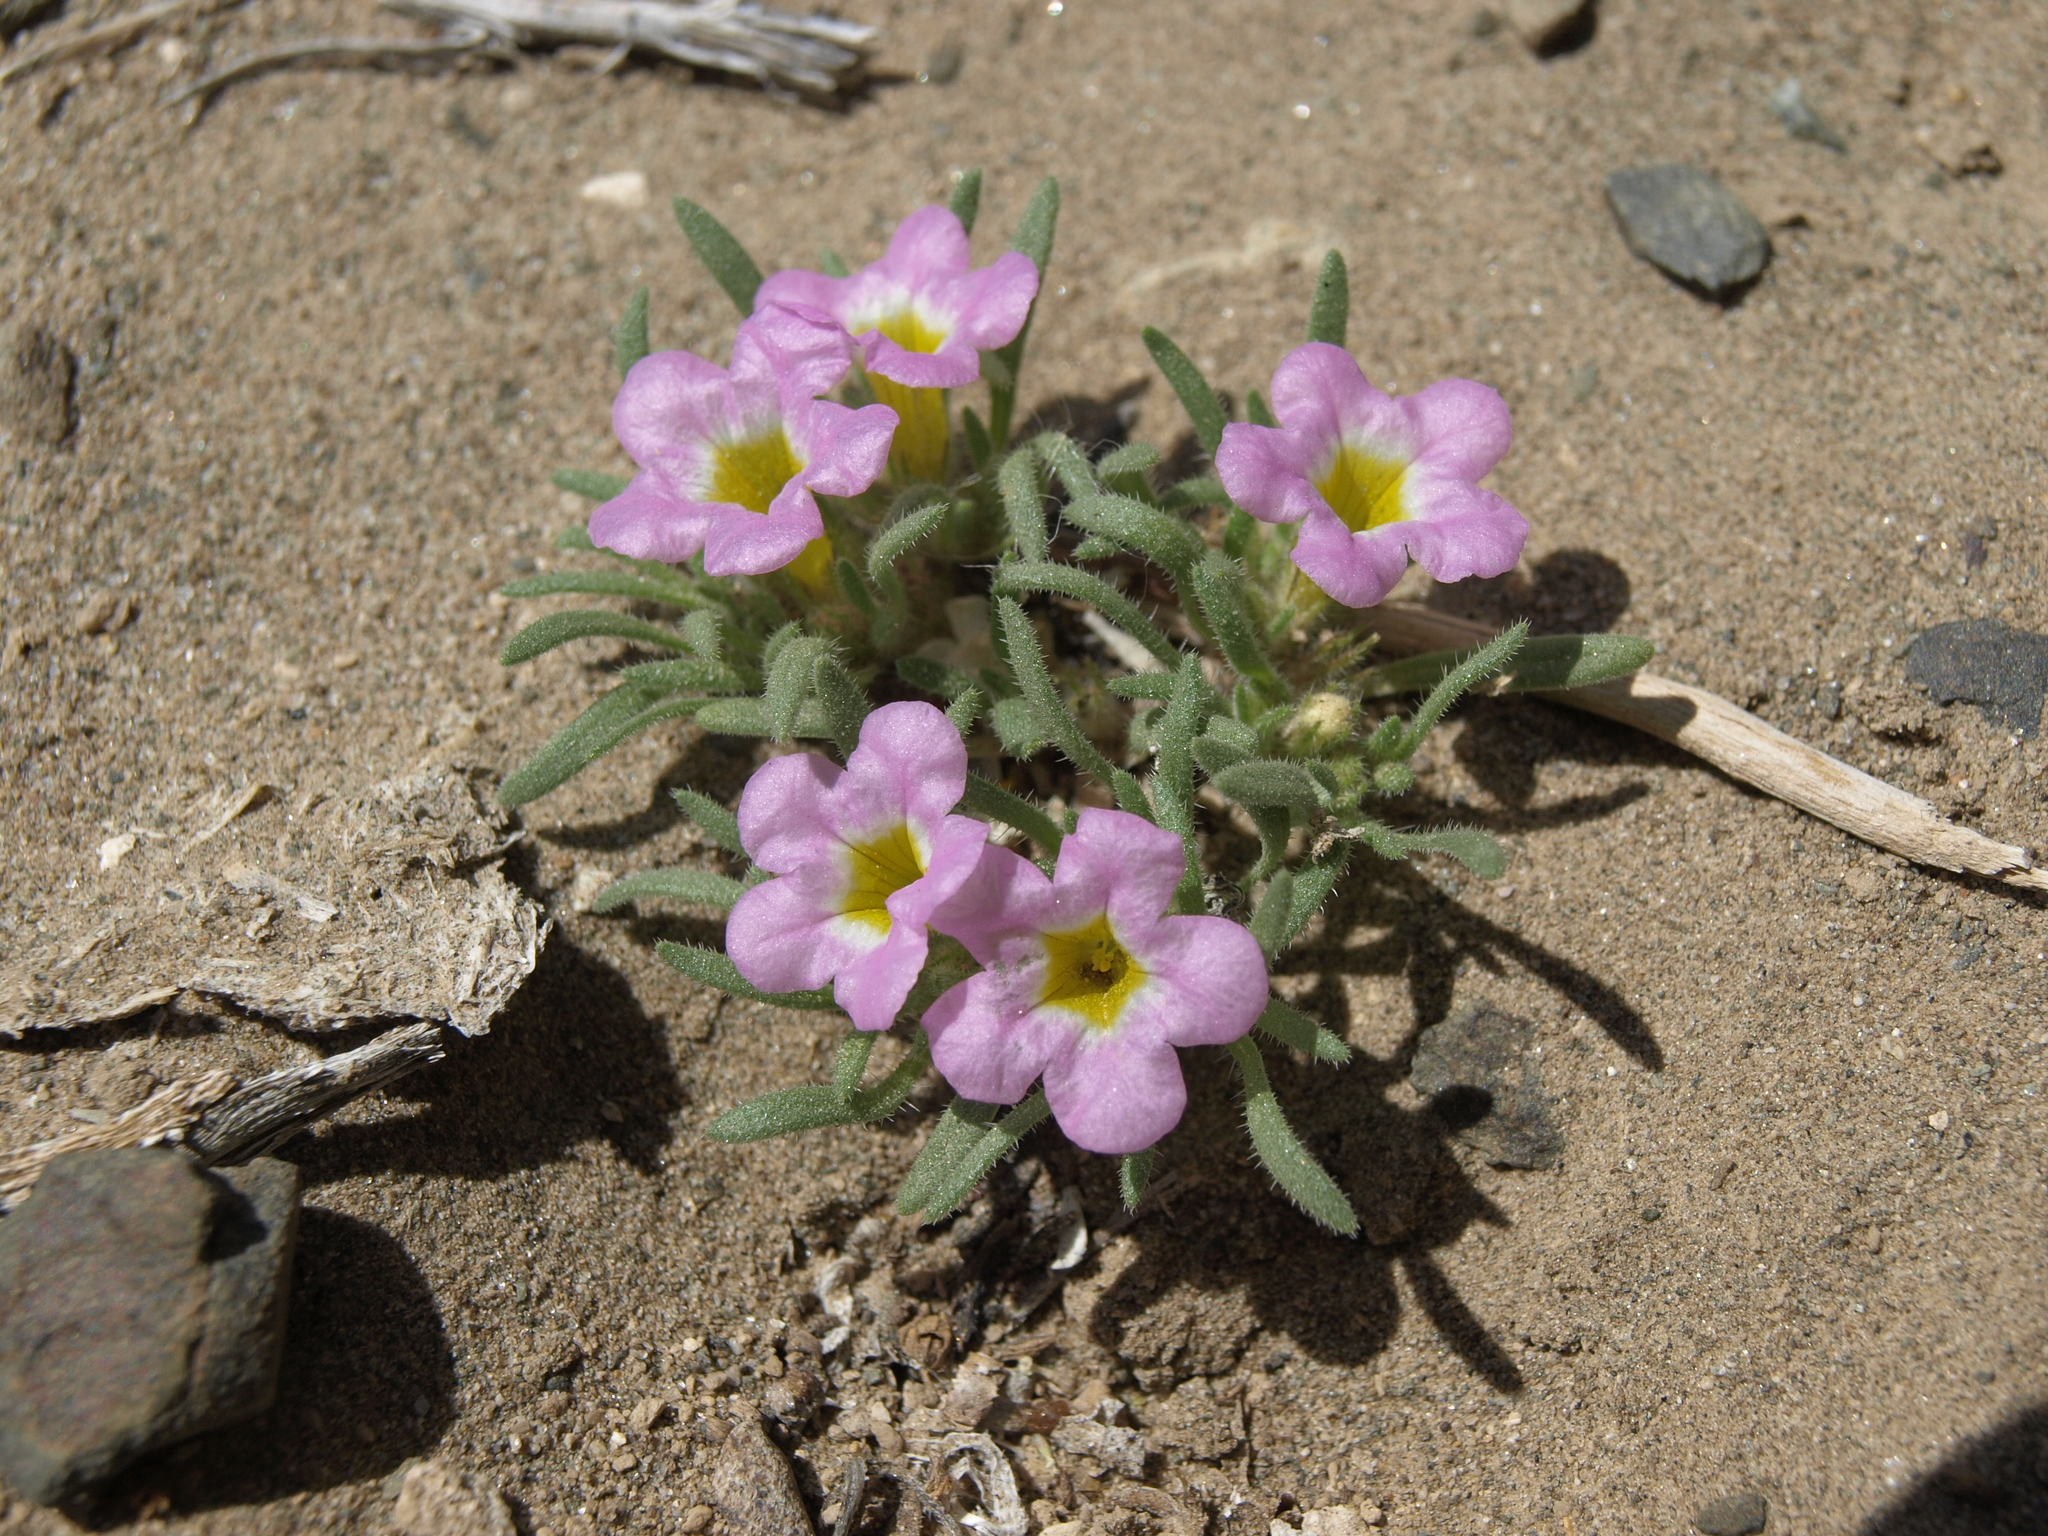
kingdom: Plantae
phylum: Tracheophyta
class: Magnoliopsida
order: Boraginales
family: Namaceae
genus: Nama
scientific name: Nama aretioides
